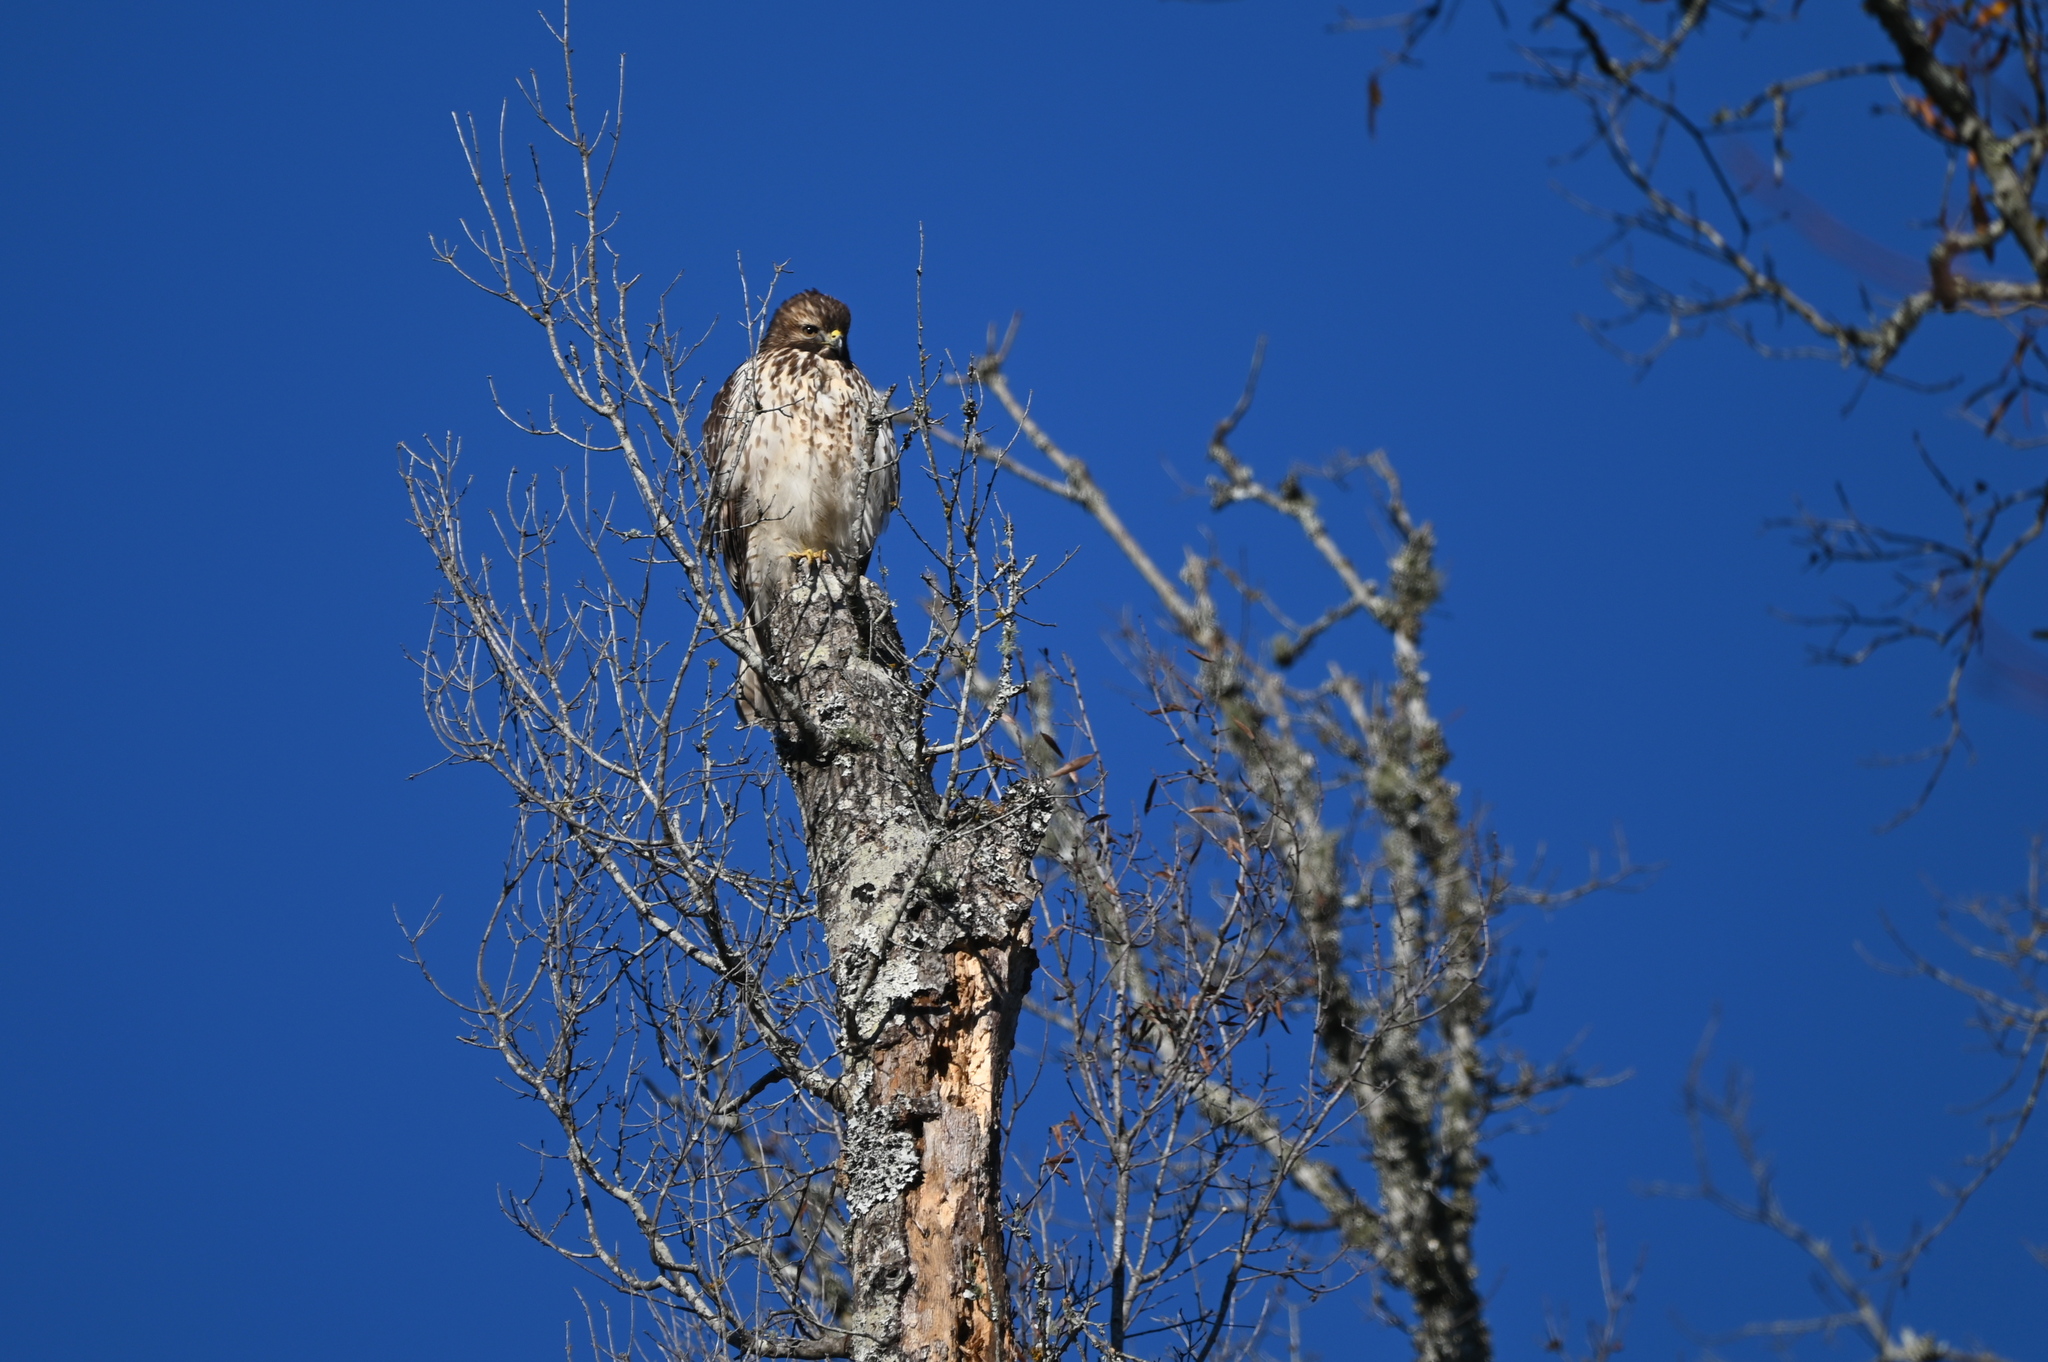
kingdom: Animalia
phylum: Chordata
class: Aves
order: Accipitriformes
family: Accipitridae
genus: Buteo
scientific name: Buteo lineatus
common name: Red-shouldered hawk
